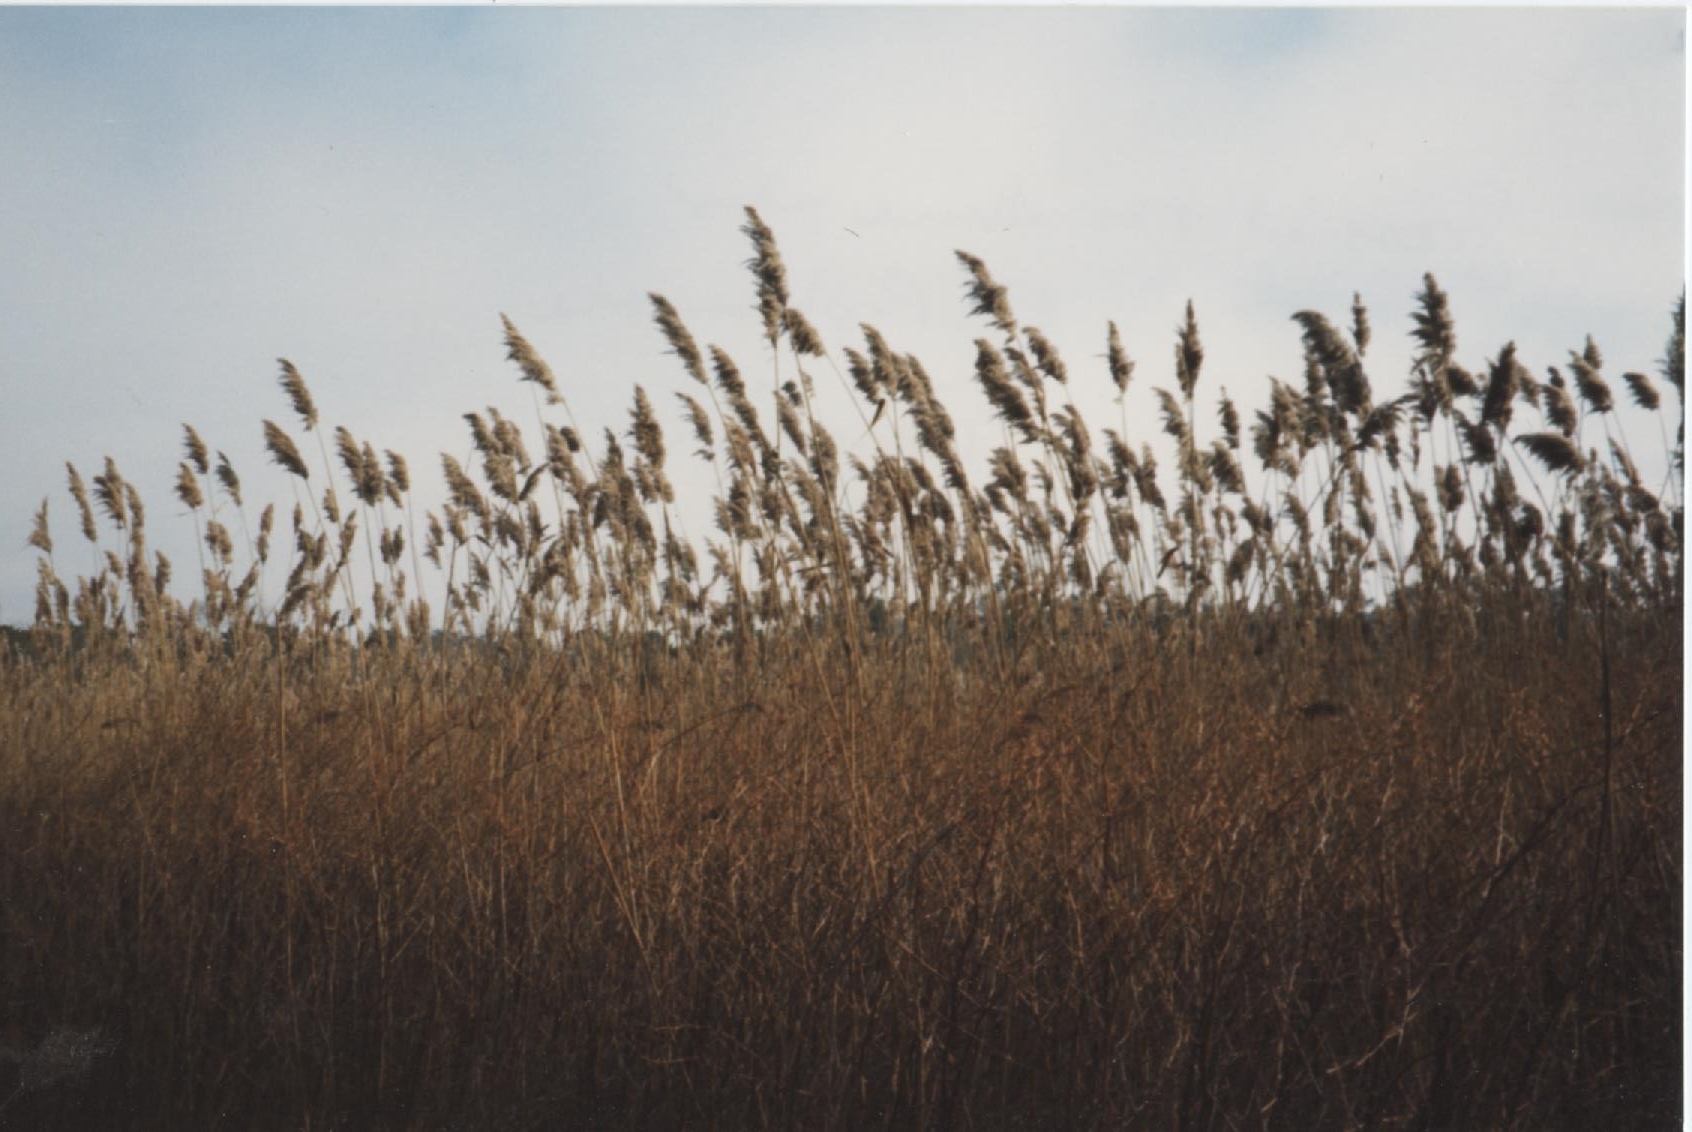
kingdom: Plantae
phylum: Tracheophyta
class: Liliopsida
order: Poales
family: Poaceae
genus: Phragmites
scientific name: Phragmites australis
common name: Common reed
